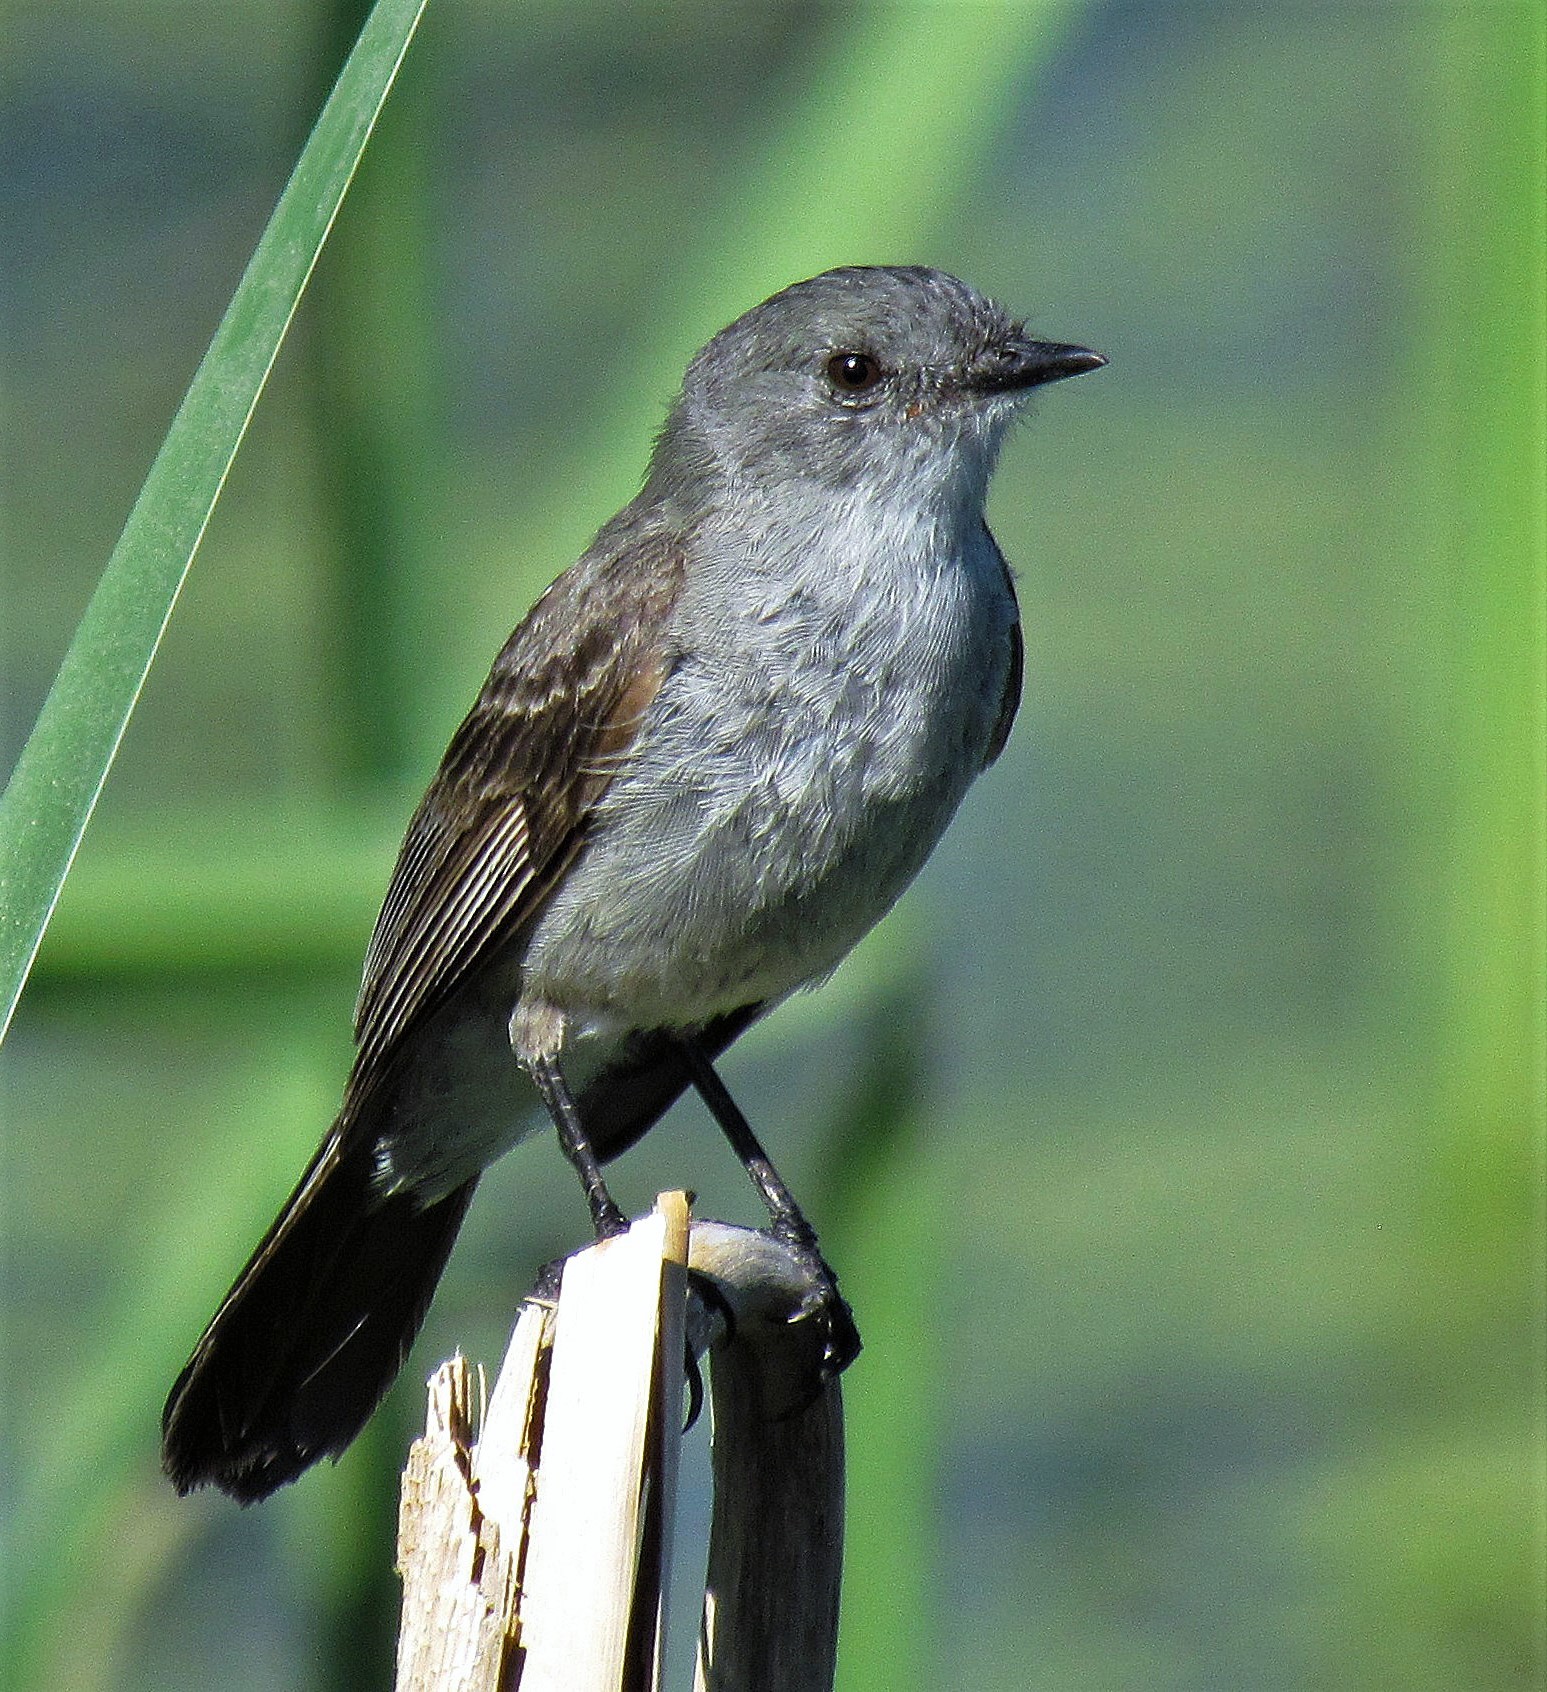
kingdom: Animalia
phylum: Chordata
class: Aves
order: Passeriformes
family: Tyrannidae
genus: Serpophaga
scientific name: Serpophaga nigricans
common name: Sooty tyrannulet
